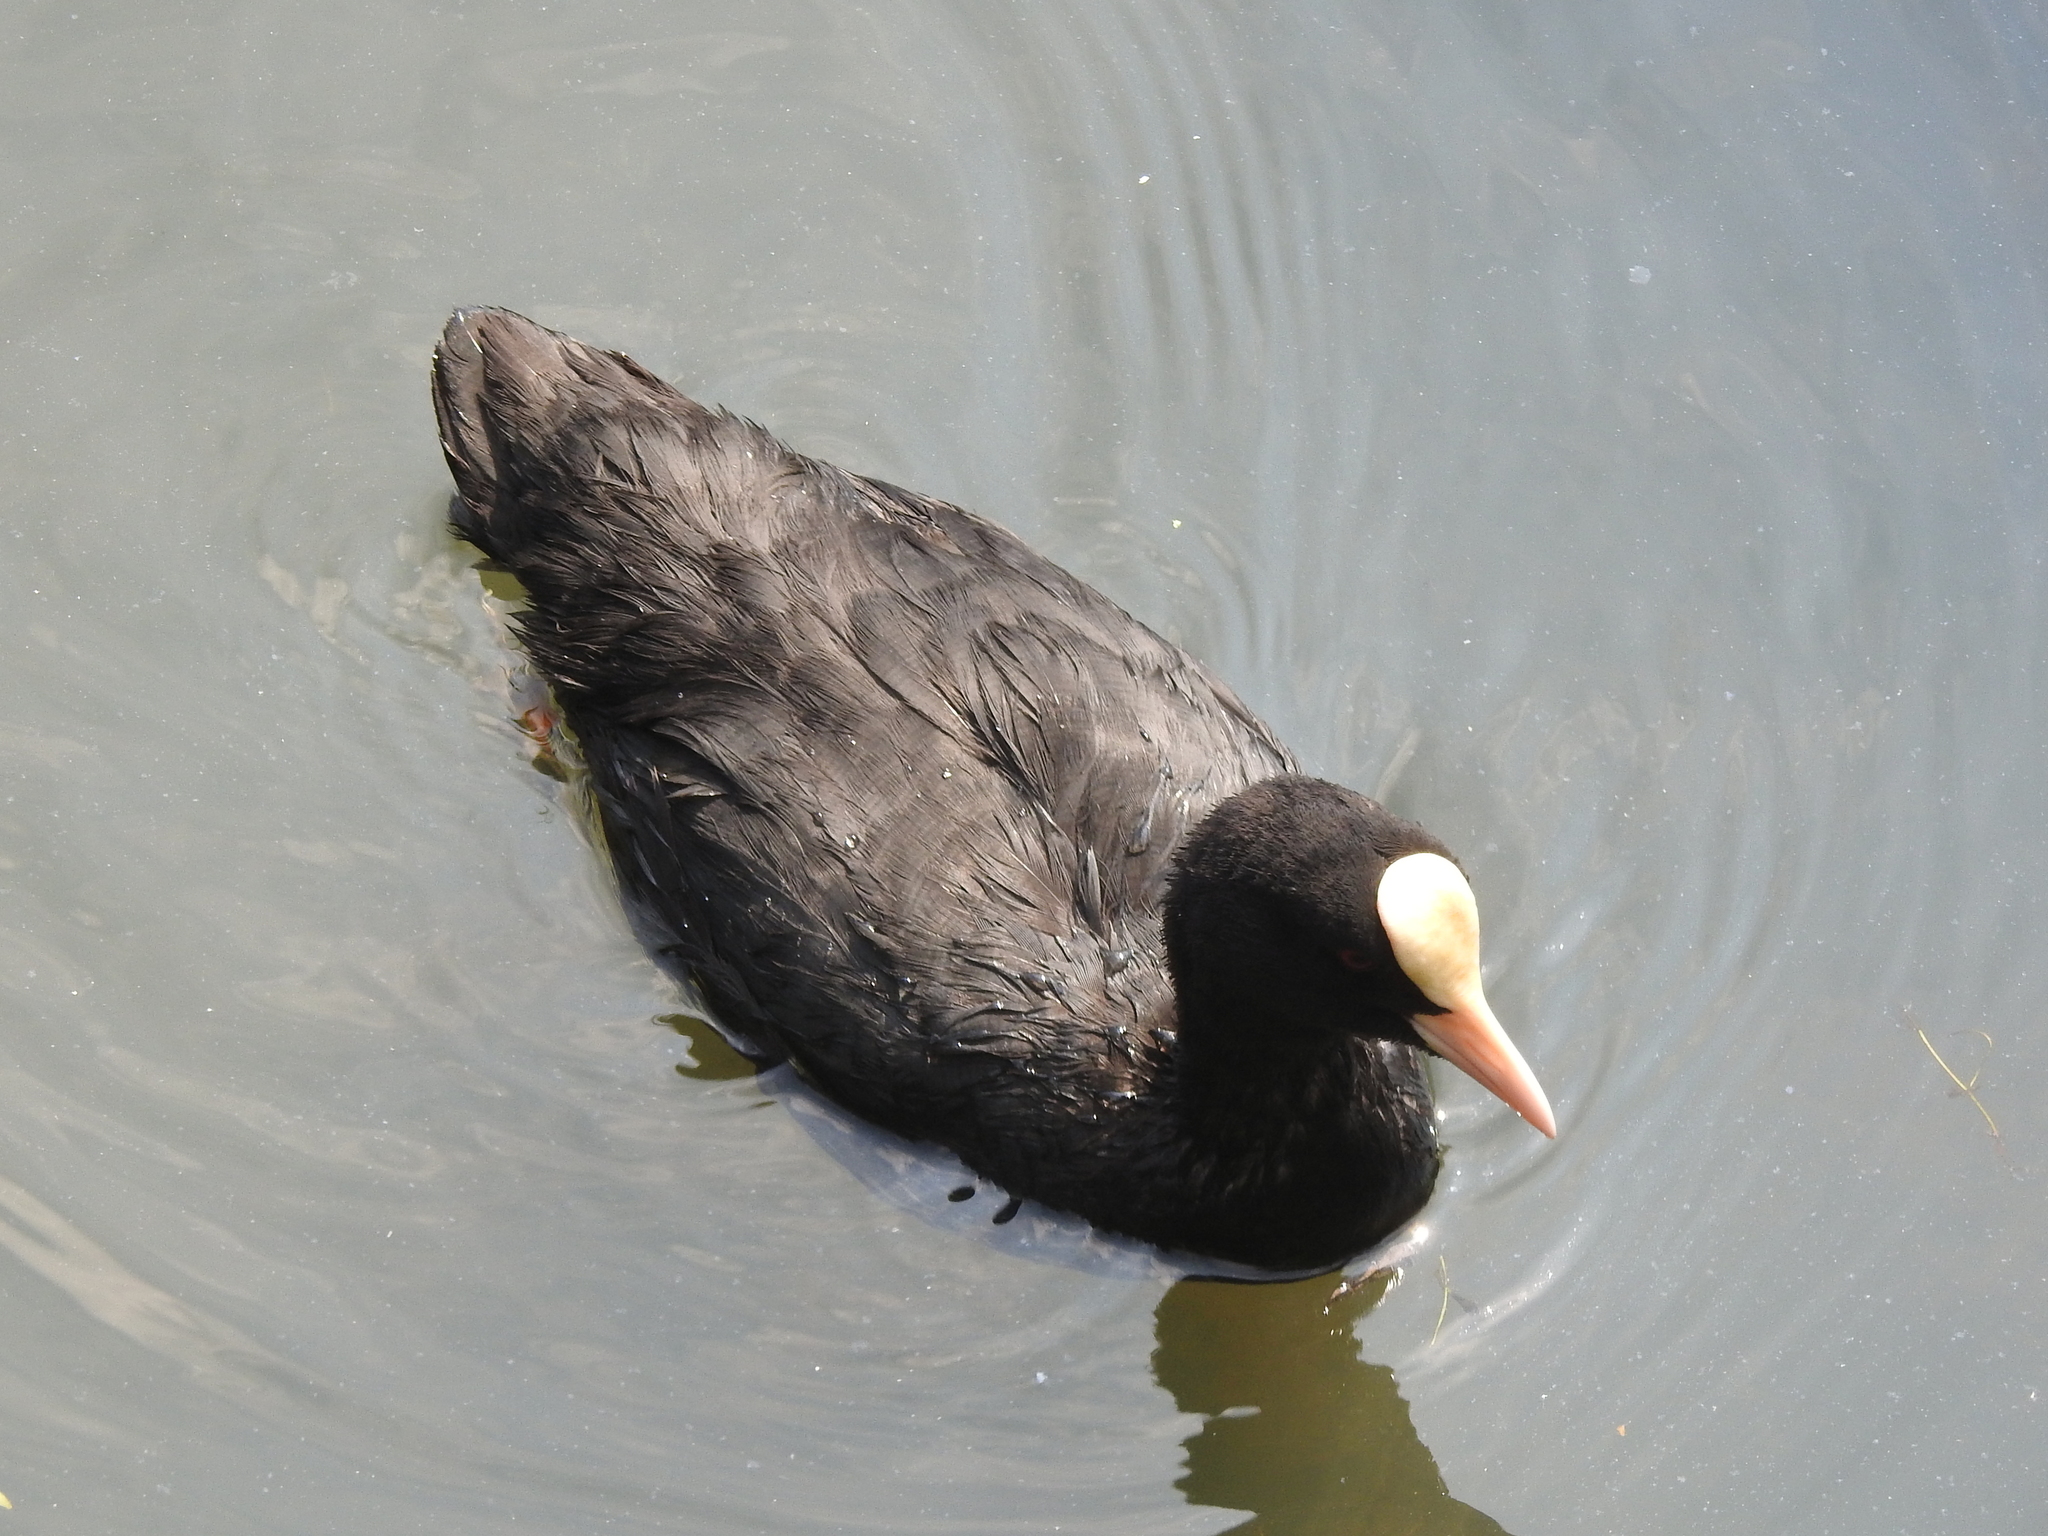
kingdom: Animalia
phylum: Chordata
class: Aves
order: Gruiformes
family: Rallidae
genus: Fulica
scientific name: Fulica atra
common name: Eurasian coot
